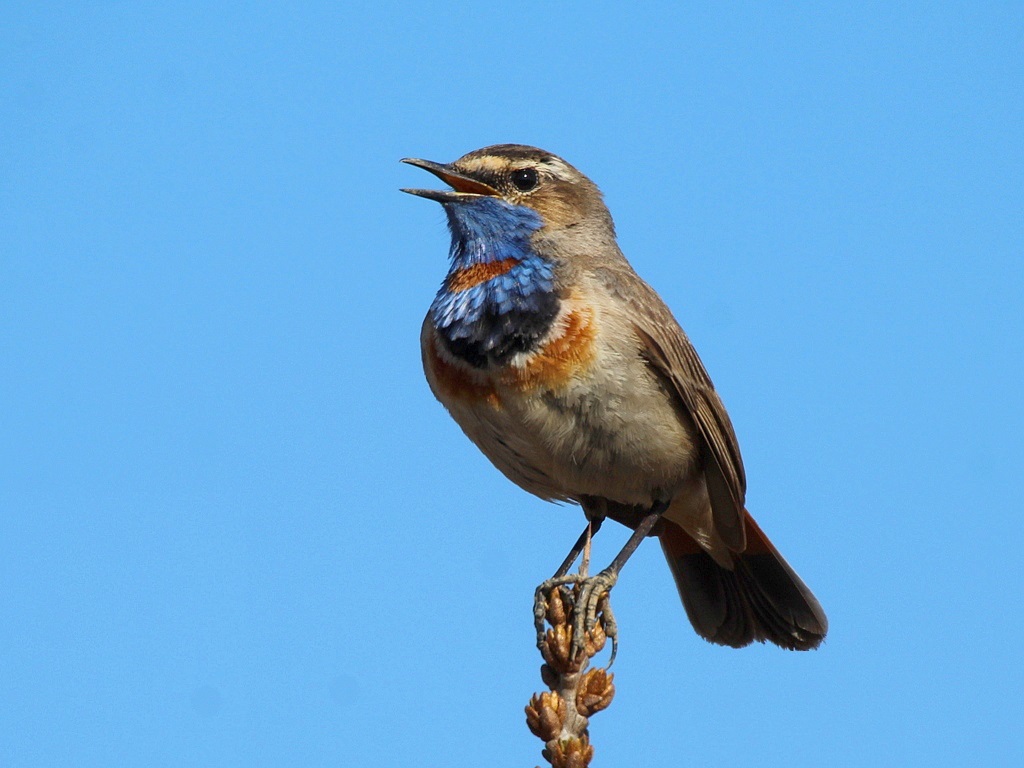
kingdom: Animalia
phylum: Chordata
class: Aves
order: Passeriformes
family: Muscicapidae
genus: Luscinia
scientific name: Luscinia svecica
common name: Bluethroat
